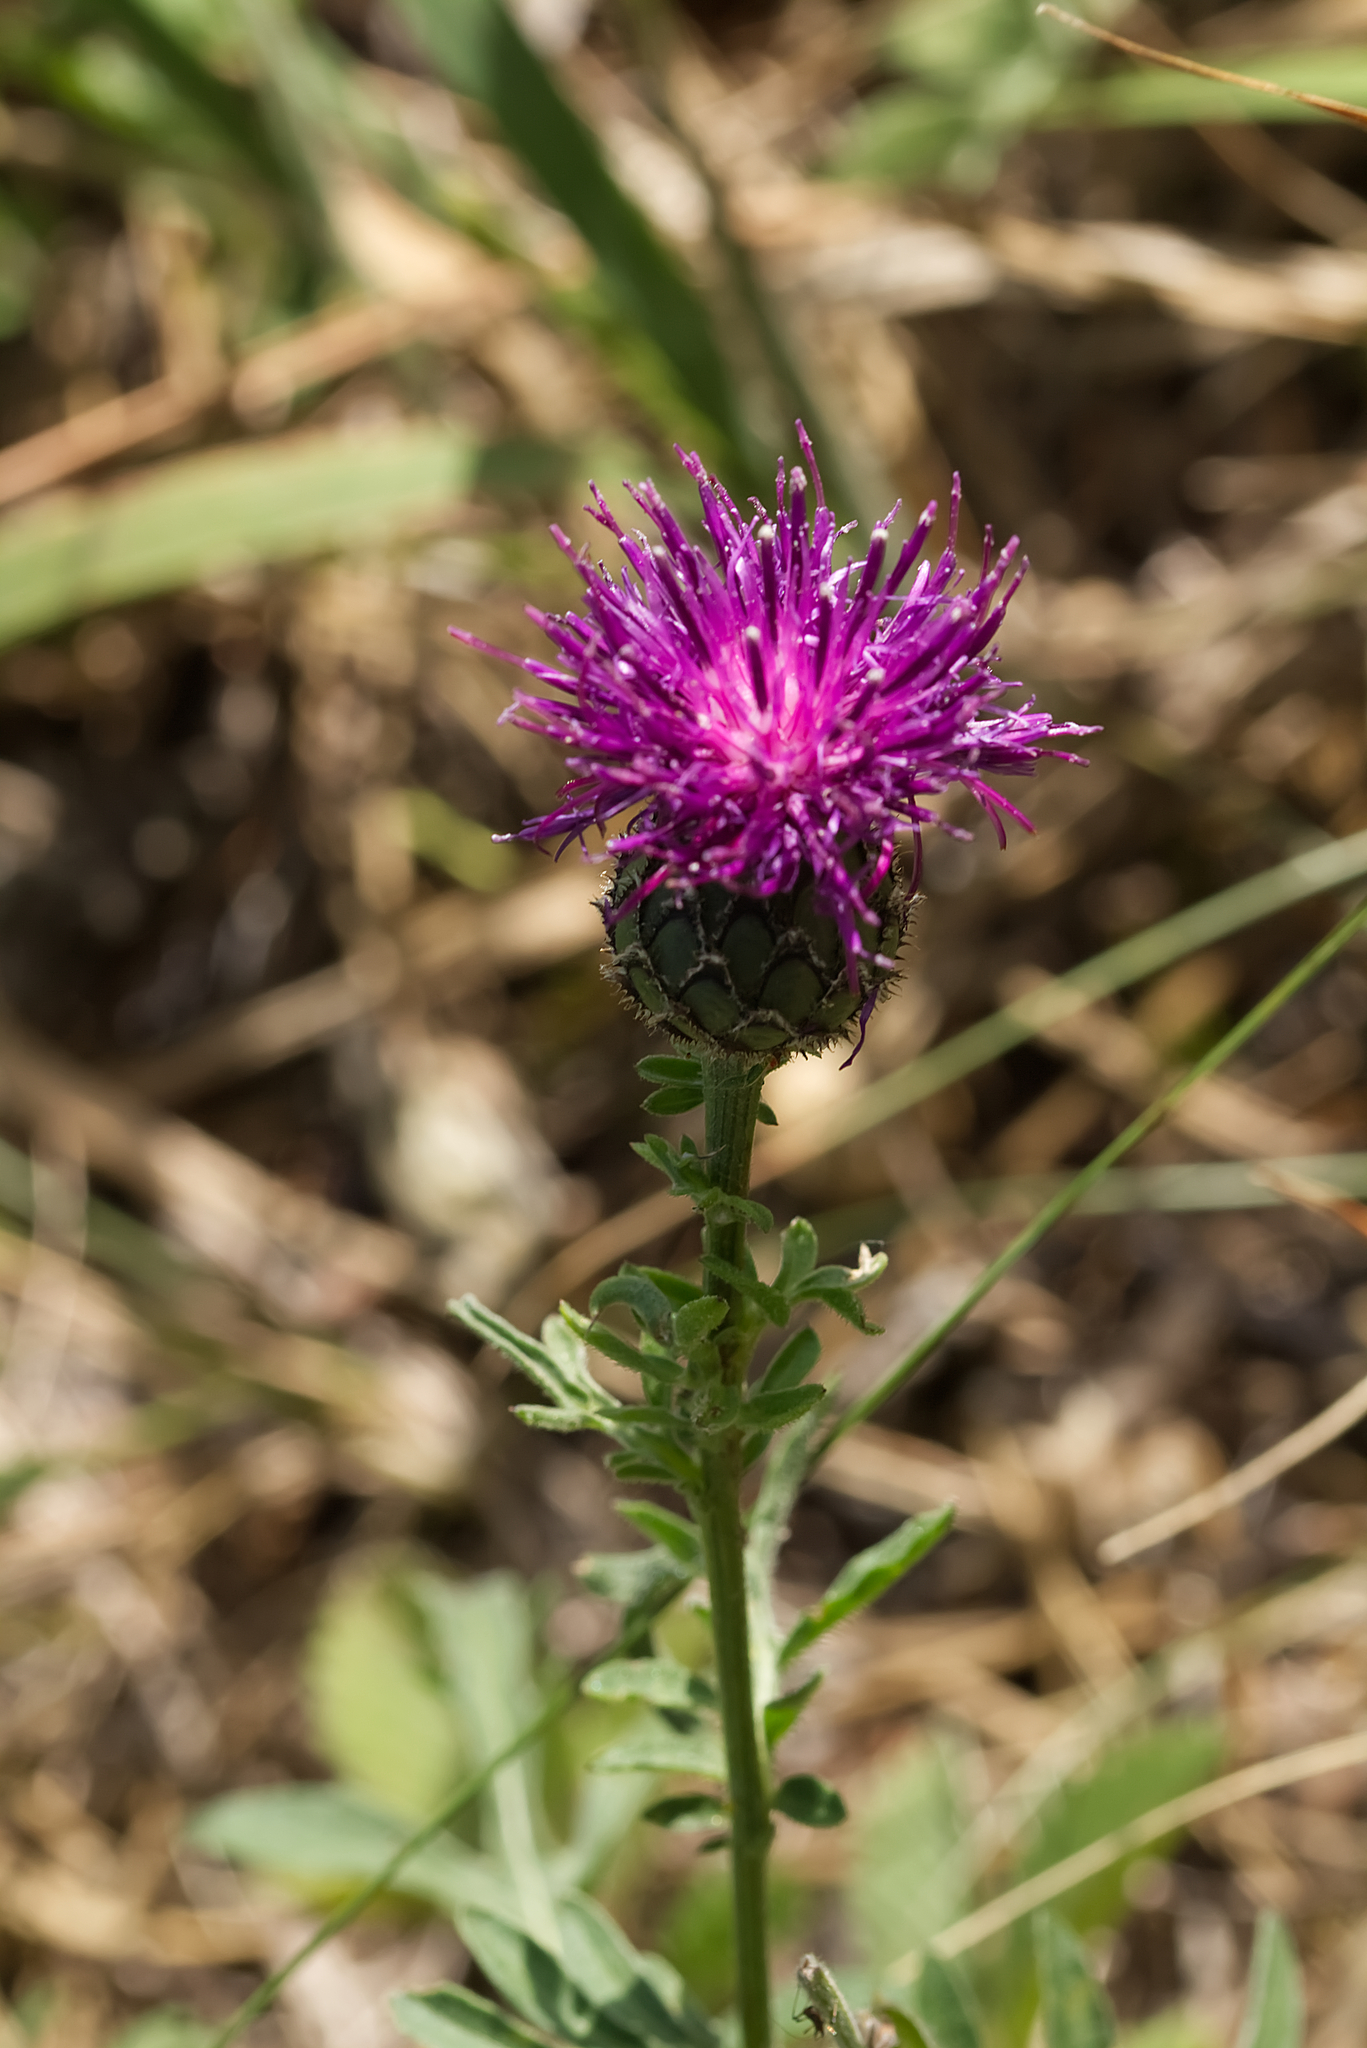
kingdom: Plantae
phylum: Tracheophyta
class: Magnoliopsida
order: Asterales
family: Asteraceae
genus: Centaurea
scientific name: Centaurea scabiosa
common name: Greater knapweed
